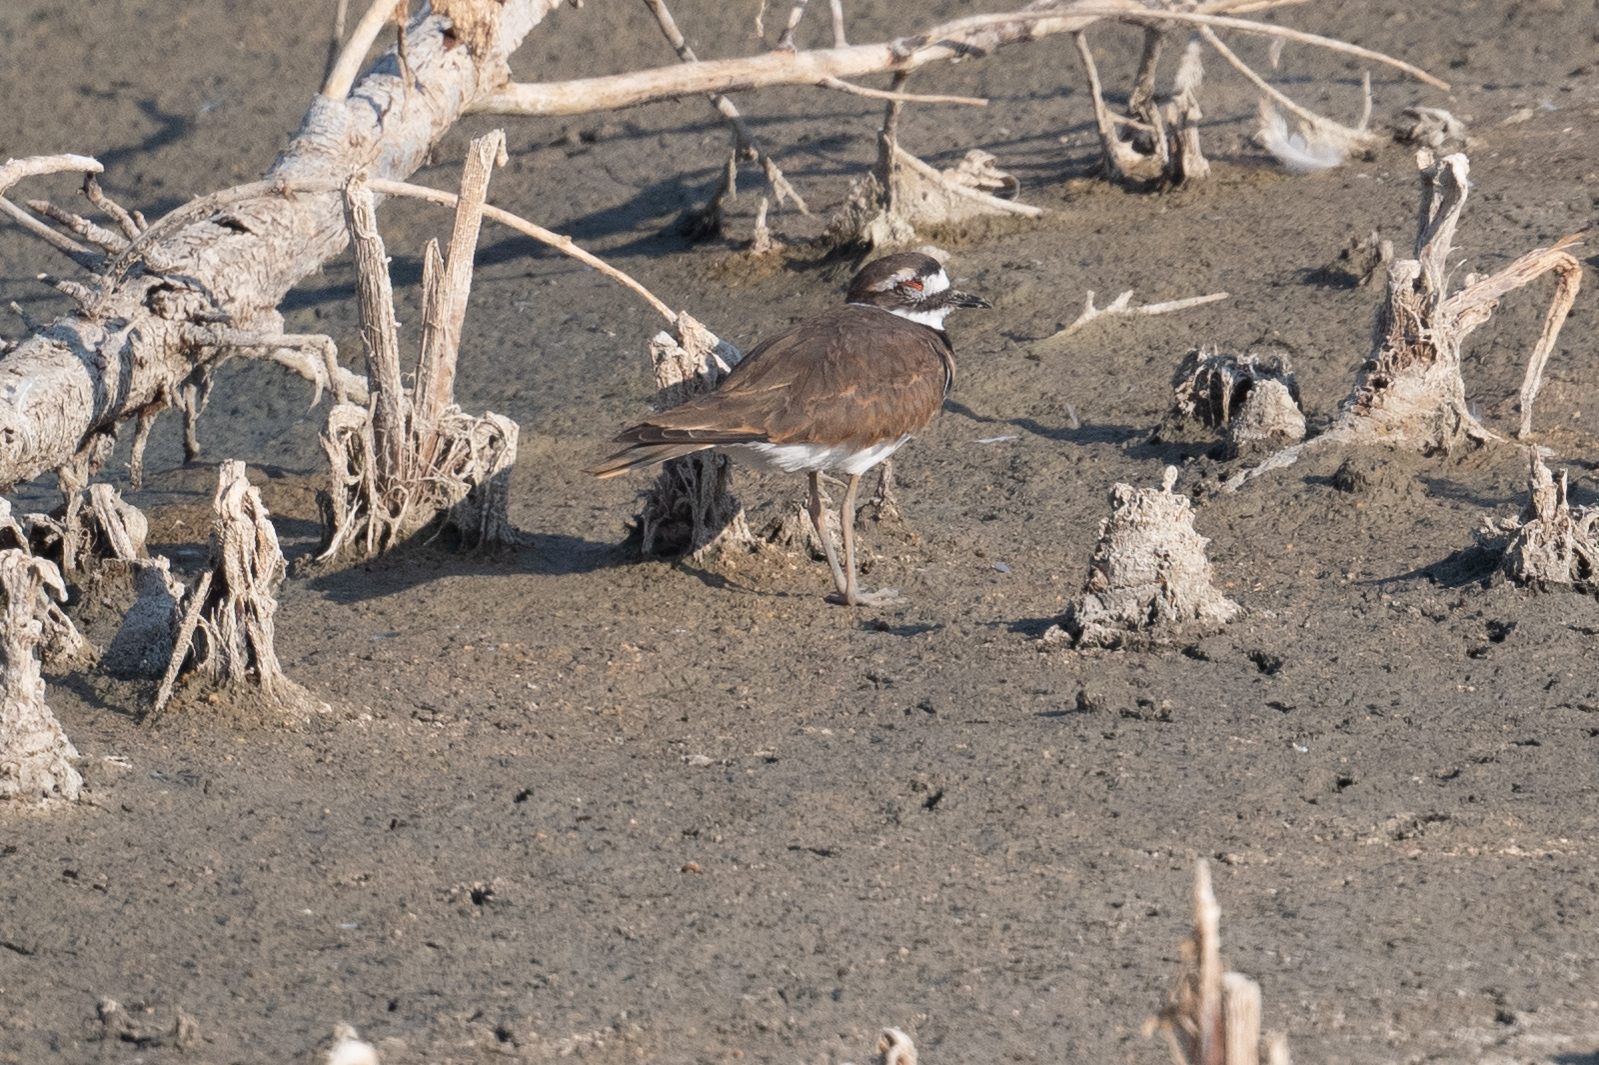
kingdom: Animalia
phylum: Chordata
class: Aves
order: Charadriiformes
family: Charadriidae
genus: Charadrius
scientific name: Charadrius vociferus
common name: Killdeer
